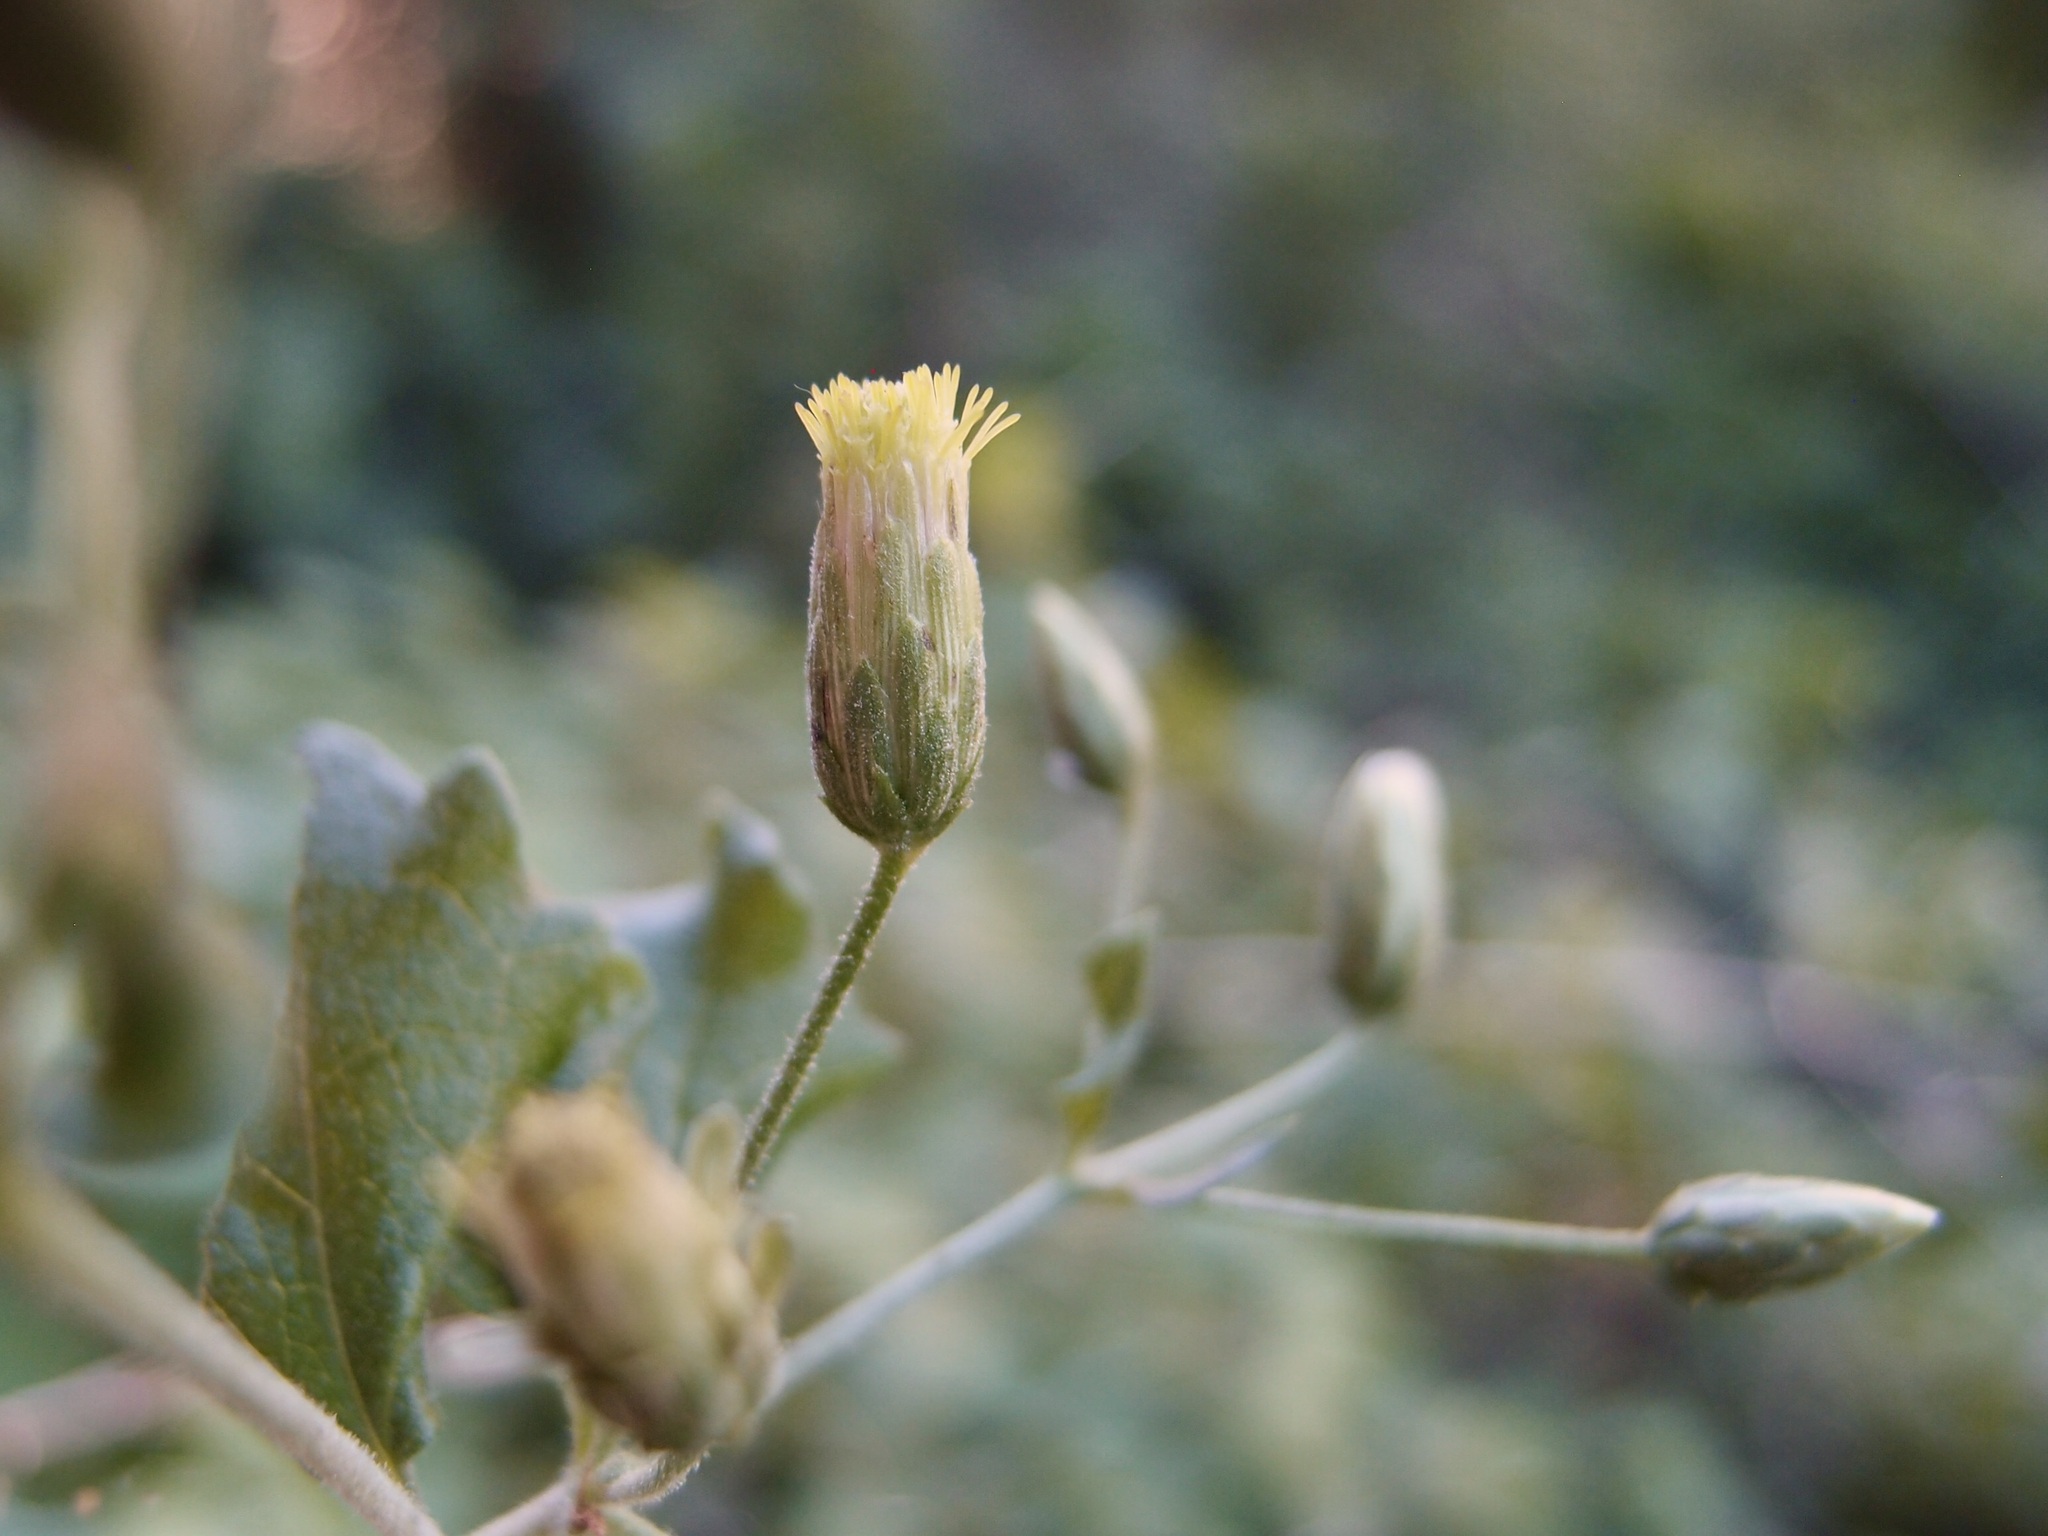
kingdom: Plantae
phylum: Tracheophyta
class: Magnoliopsida
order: Asterales
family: Asteraceae
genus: Brickellia
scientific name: Brickellia rhomboidea
